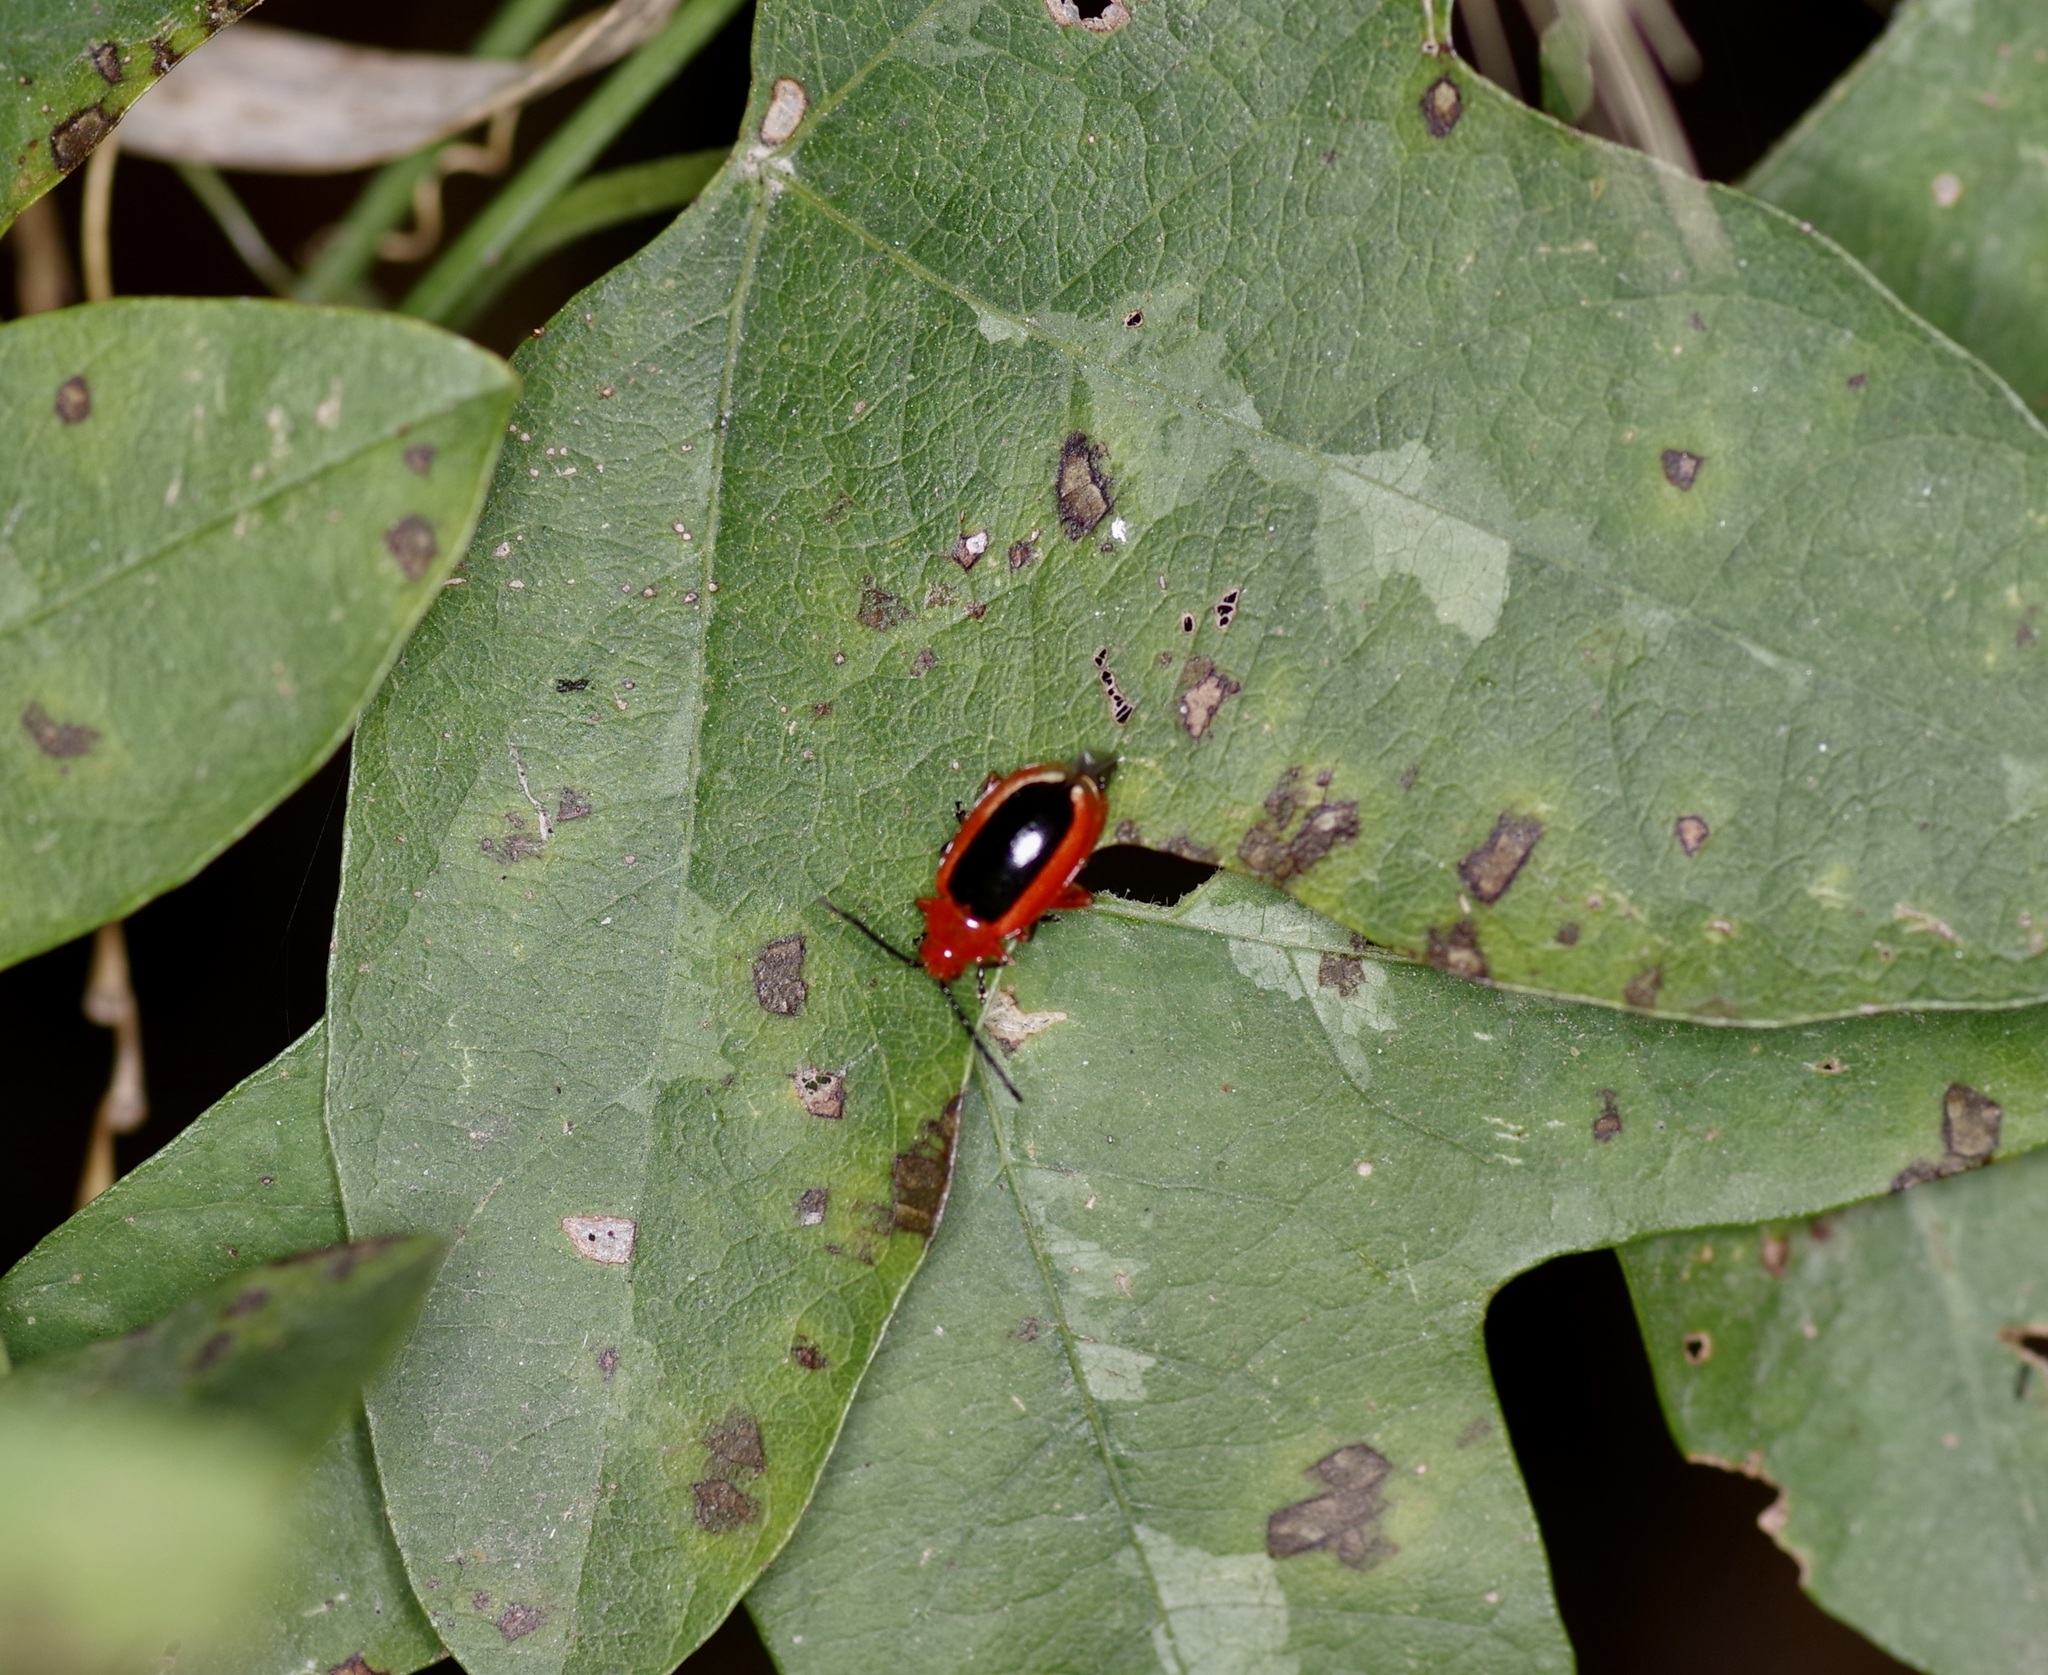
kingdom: Animalia
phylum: Arthropoda
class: Insecta
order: Coleoptera
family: Chrysomelidae
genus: Disonycha
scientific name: Disonycha discoidea
